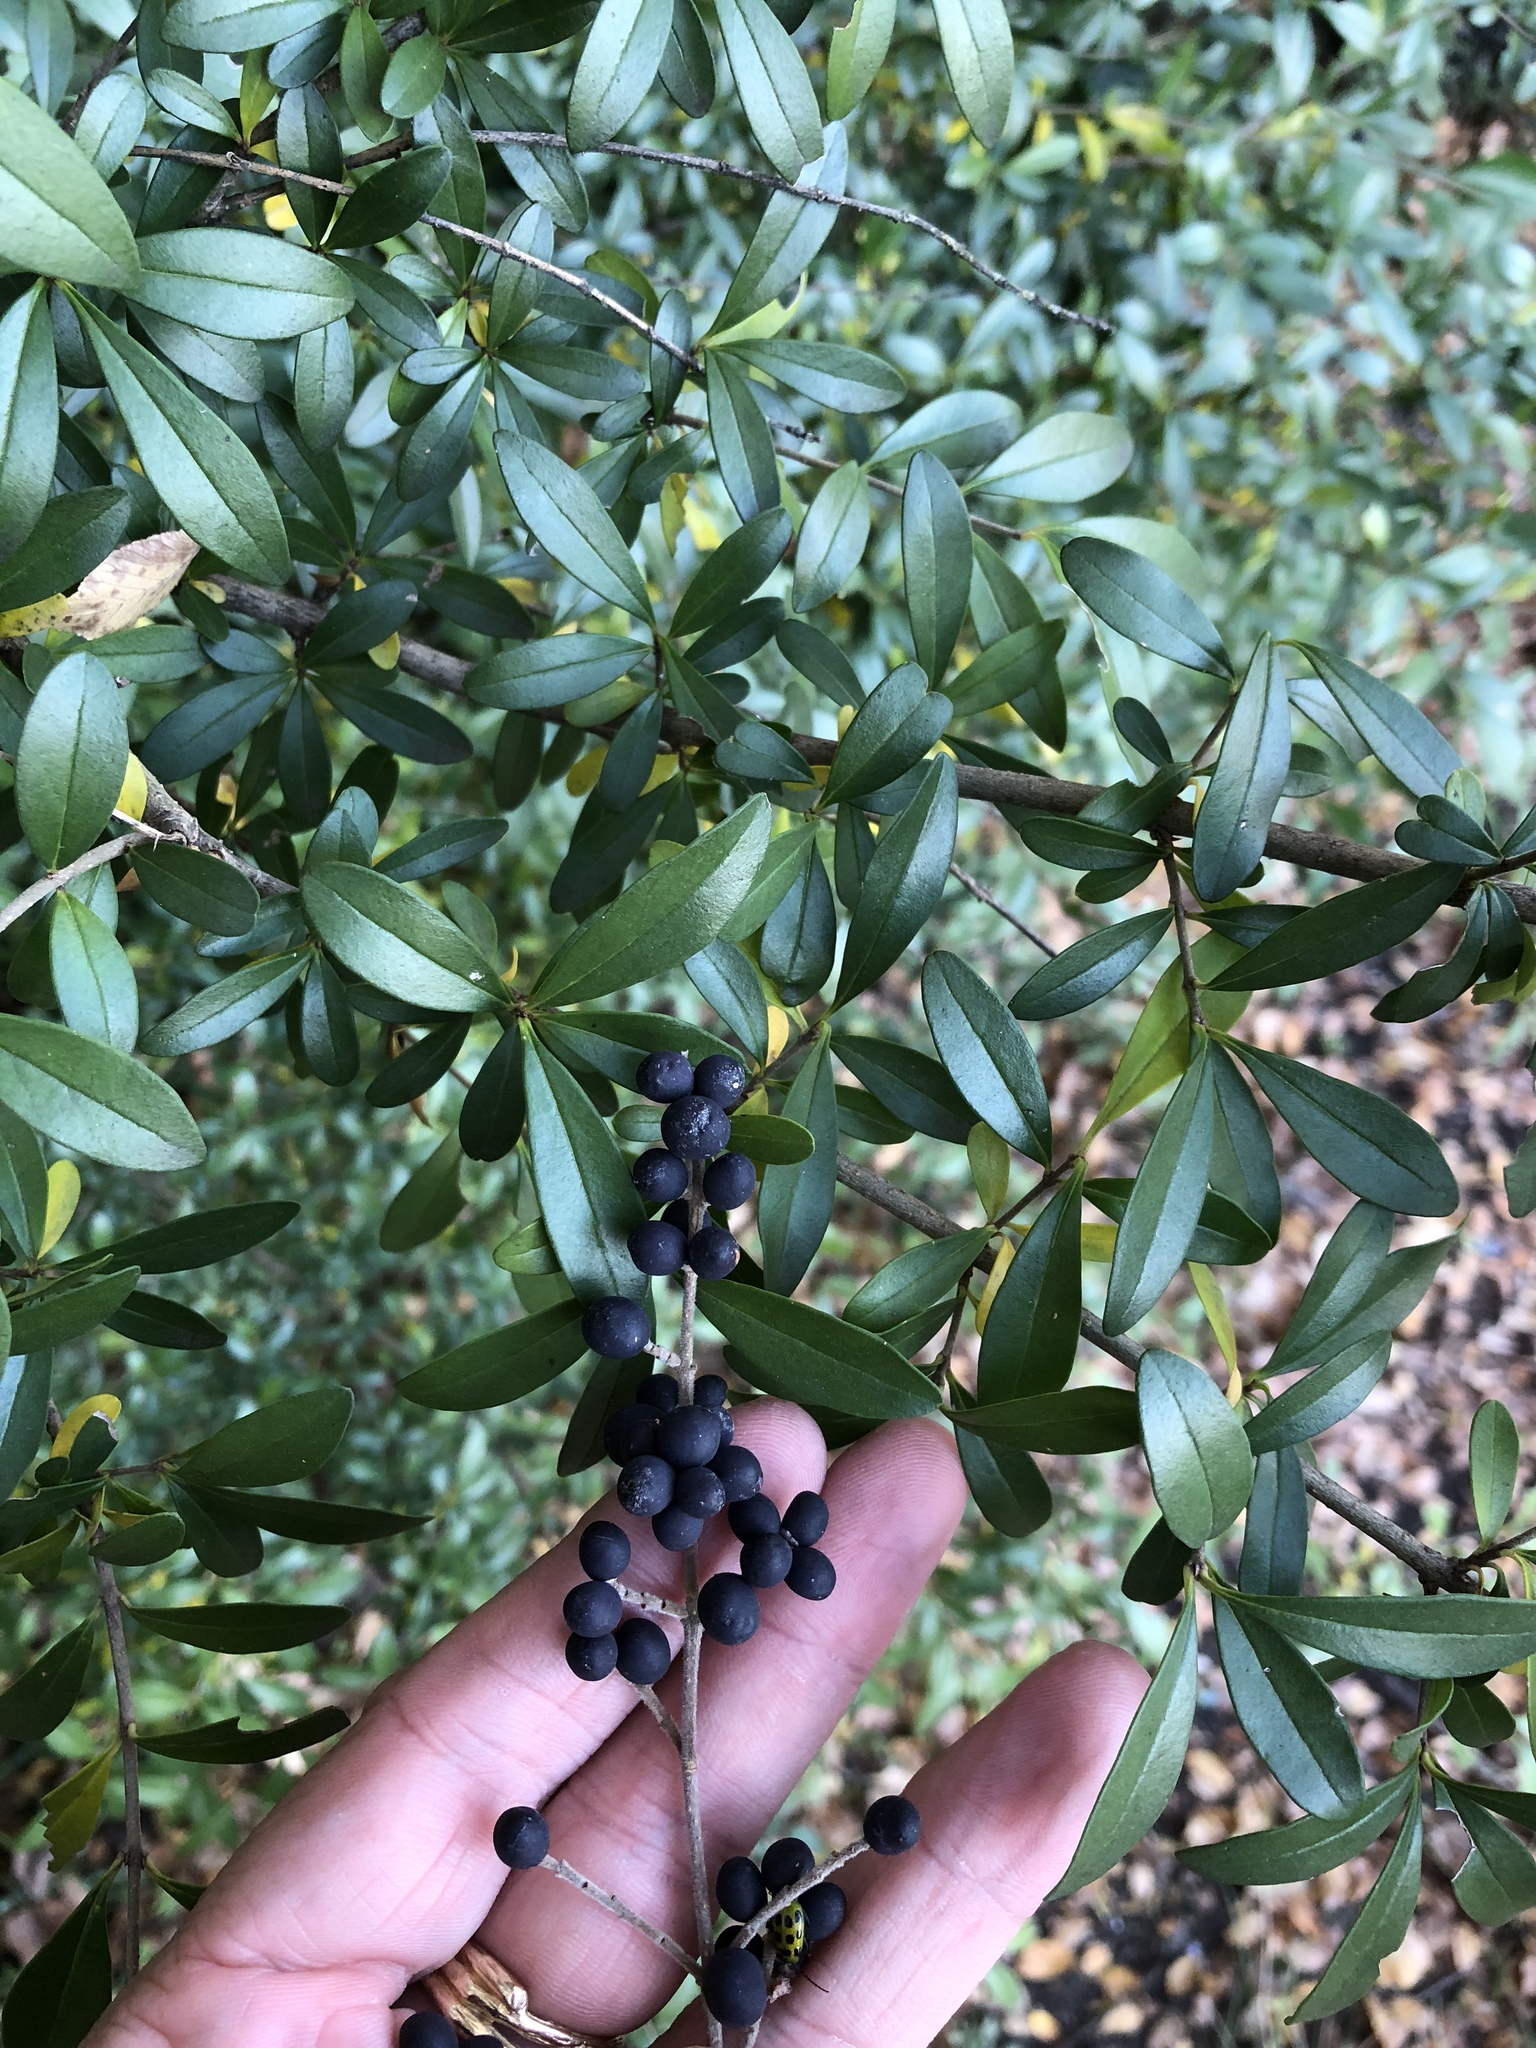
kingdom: Plantae
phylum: Tracheophyta
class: Magnoliopsida
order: Lamiales
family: Oleaceae
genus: Ligustrum
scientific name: Ligustrum quihoui
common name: Waxyleaf privet
